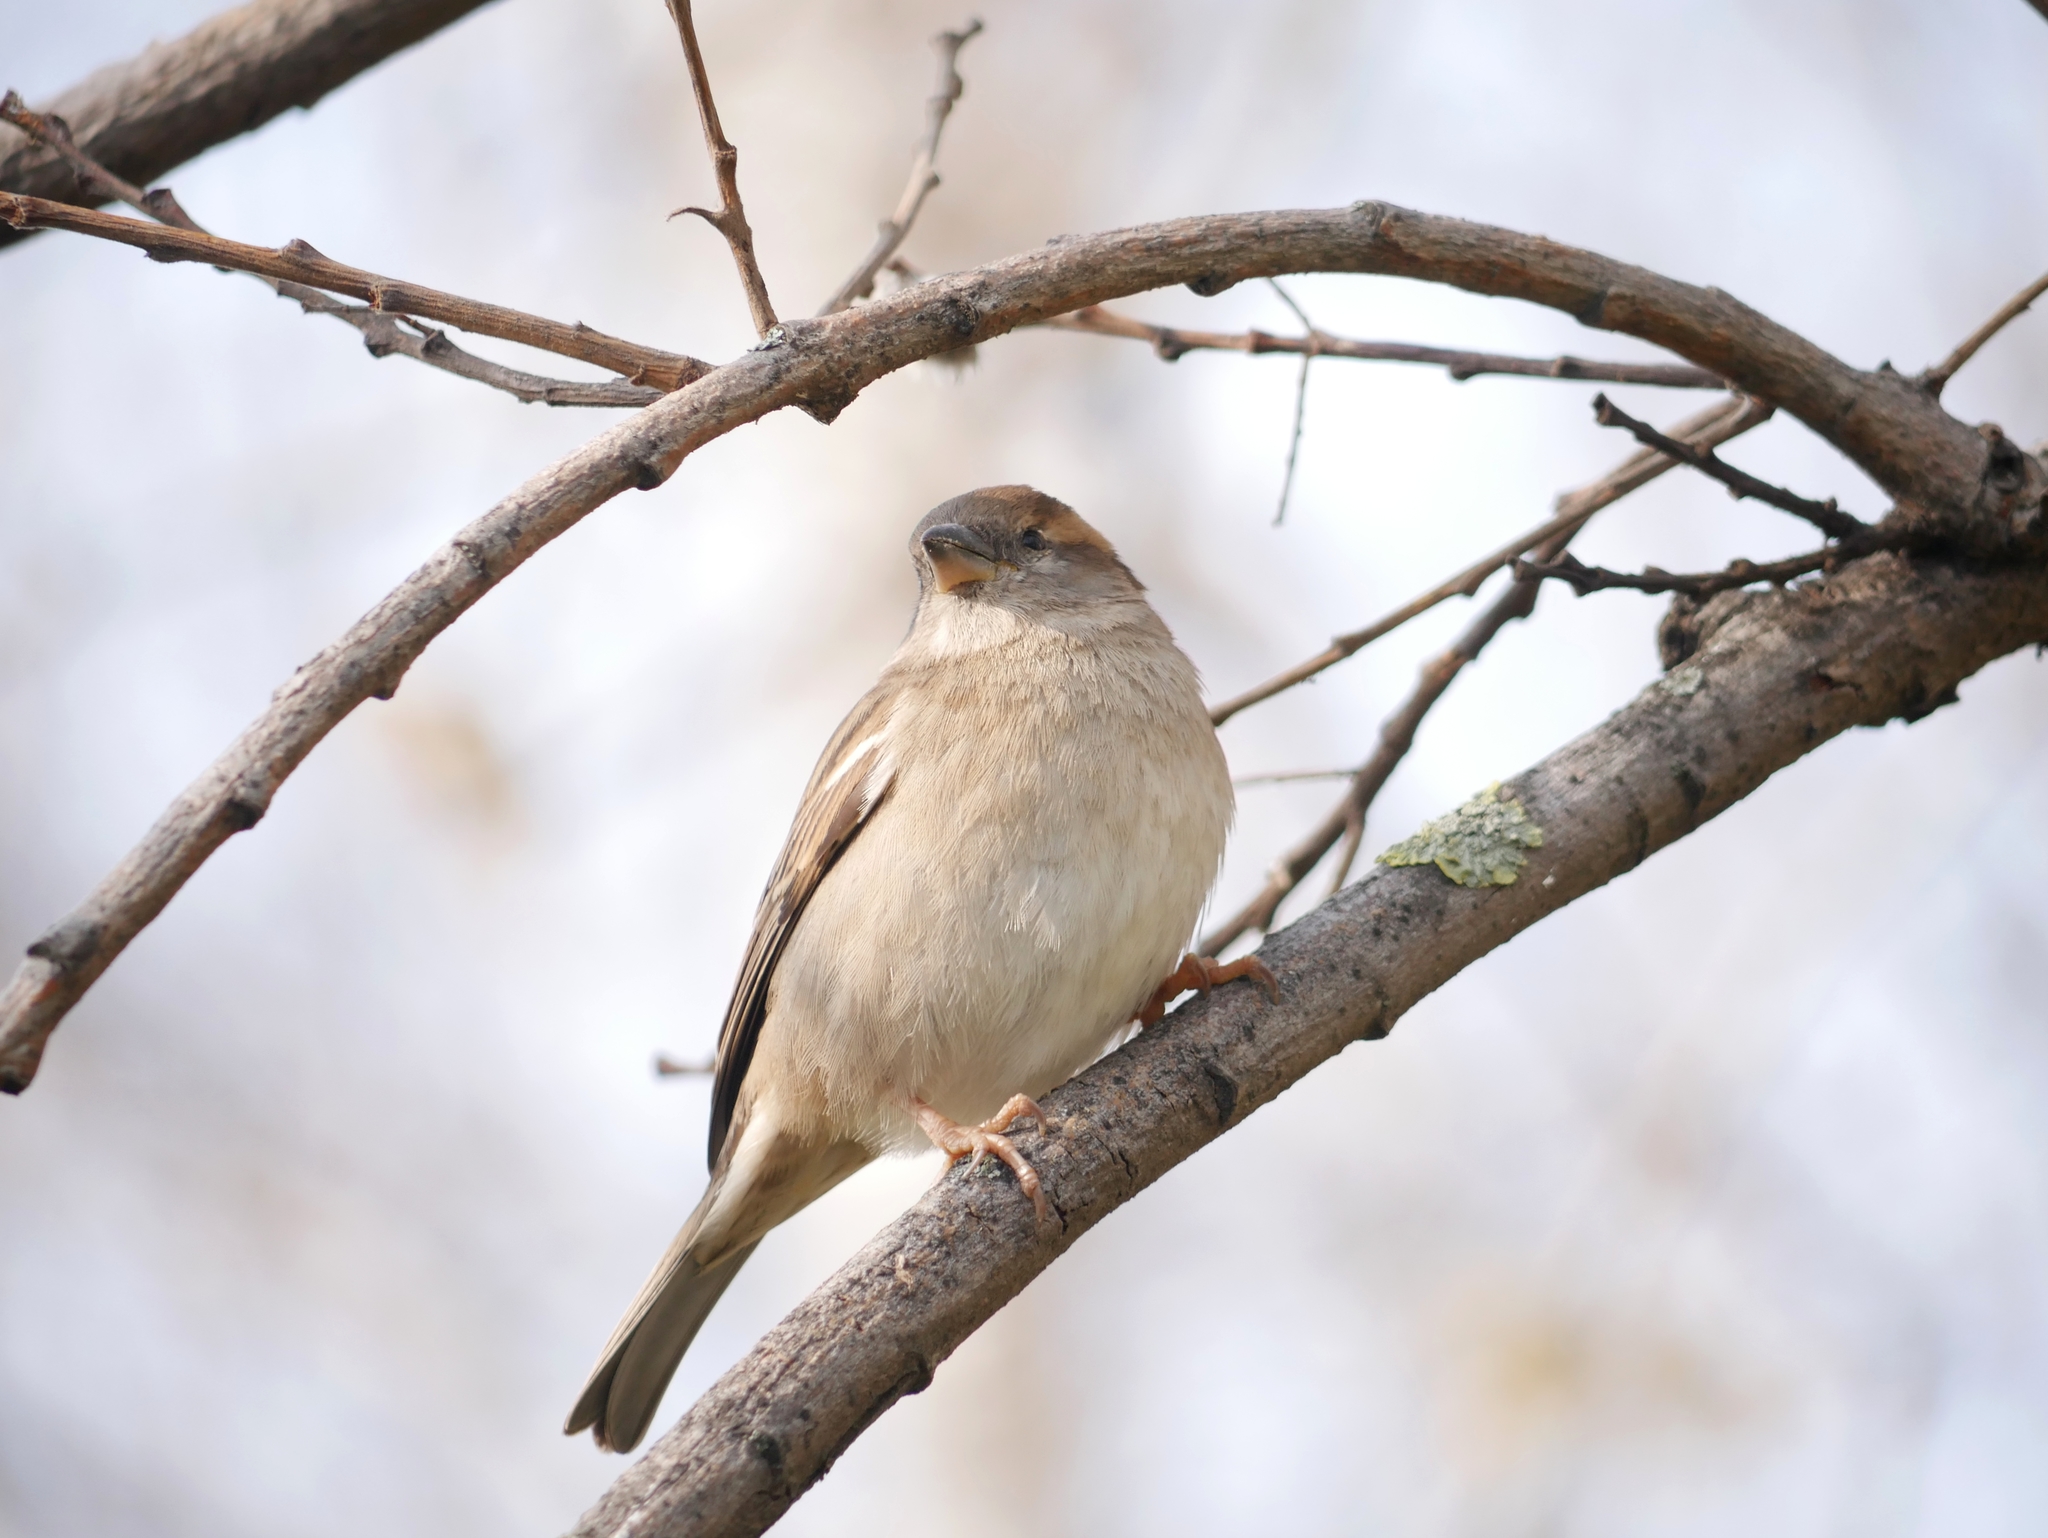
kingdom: Animalia
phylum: Chordata
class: Aves
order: Passeriformes
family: Passeridae
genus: Passer
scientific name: Passer domesticus
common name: House sparrow
